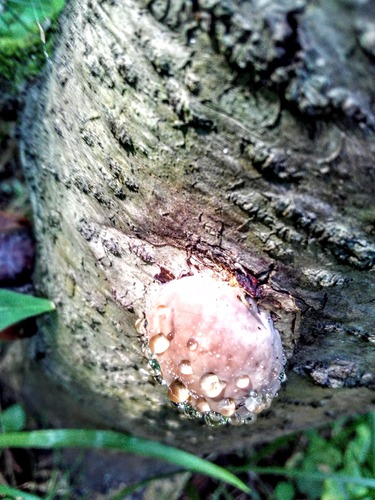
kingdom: Fungi
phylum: Basidiomycota
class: Agaricomycetes
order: Polyporales
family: Fomitopsidaceae
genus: Fomitopsis
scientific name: Fomitopsis pinicola
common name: Red-belted bracket
